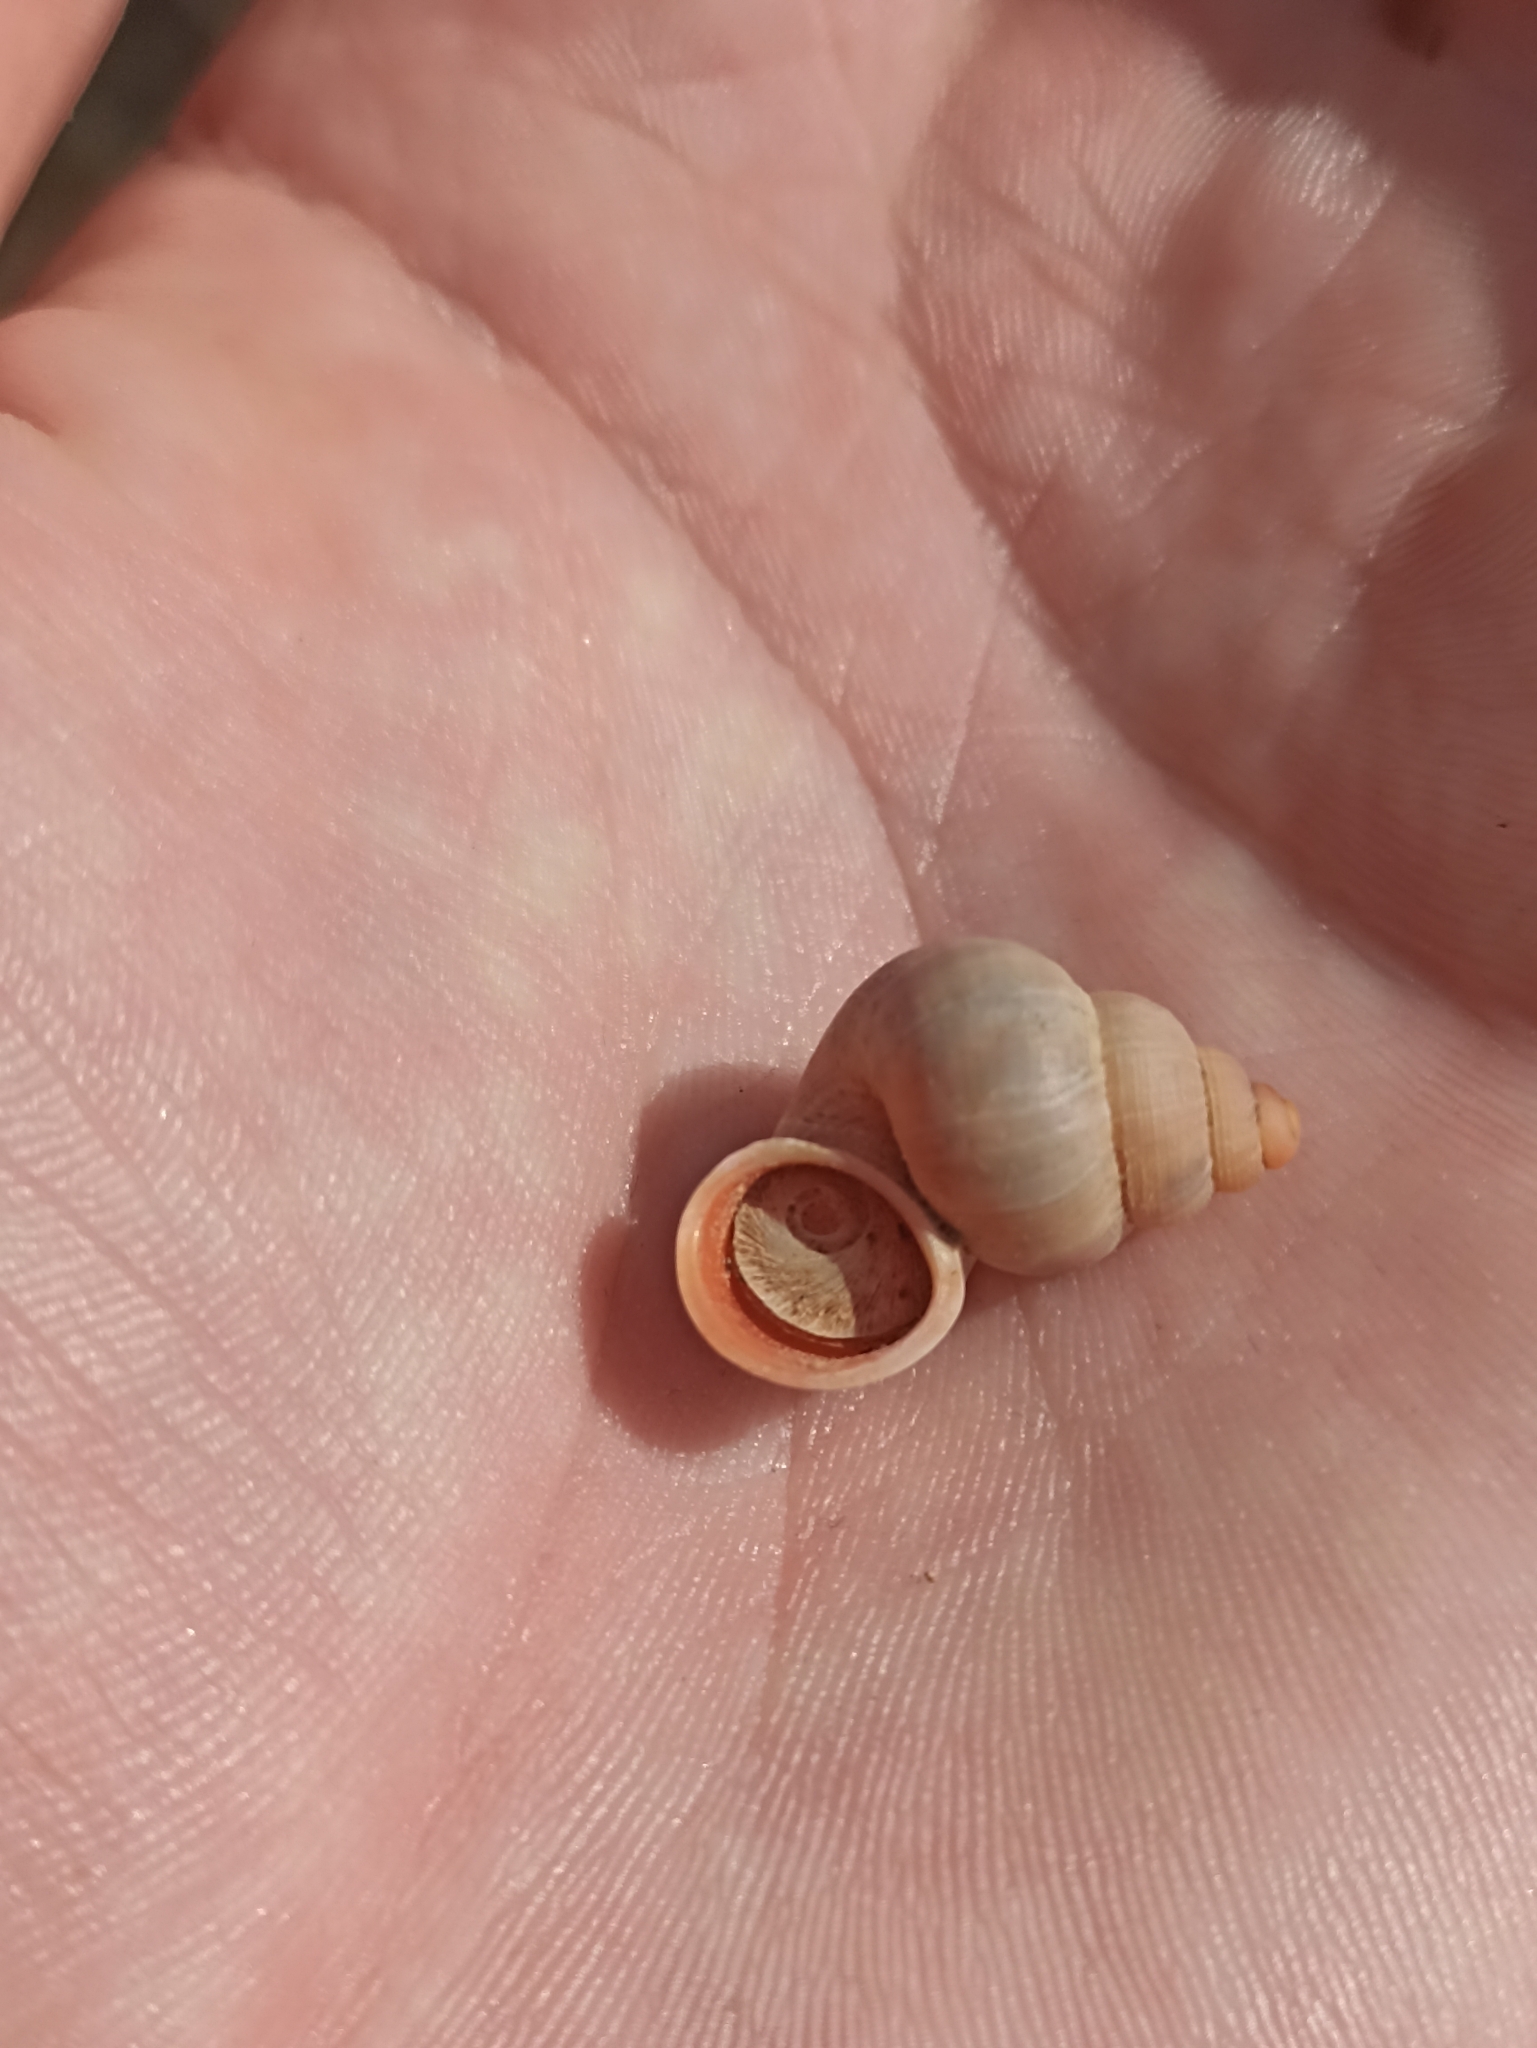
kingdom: Animalia
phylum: Mollusca
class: Gastropoda
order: Littorinimorpha
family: Pomatiidae
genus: Tudorella
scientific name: Tudorella sulcata
